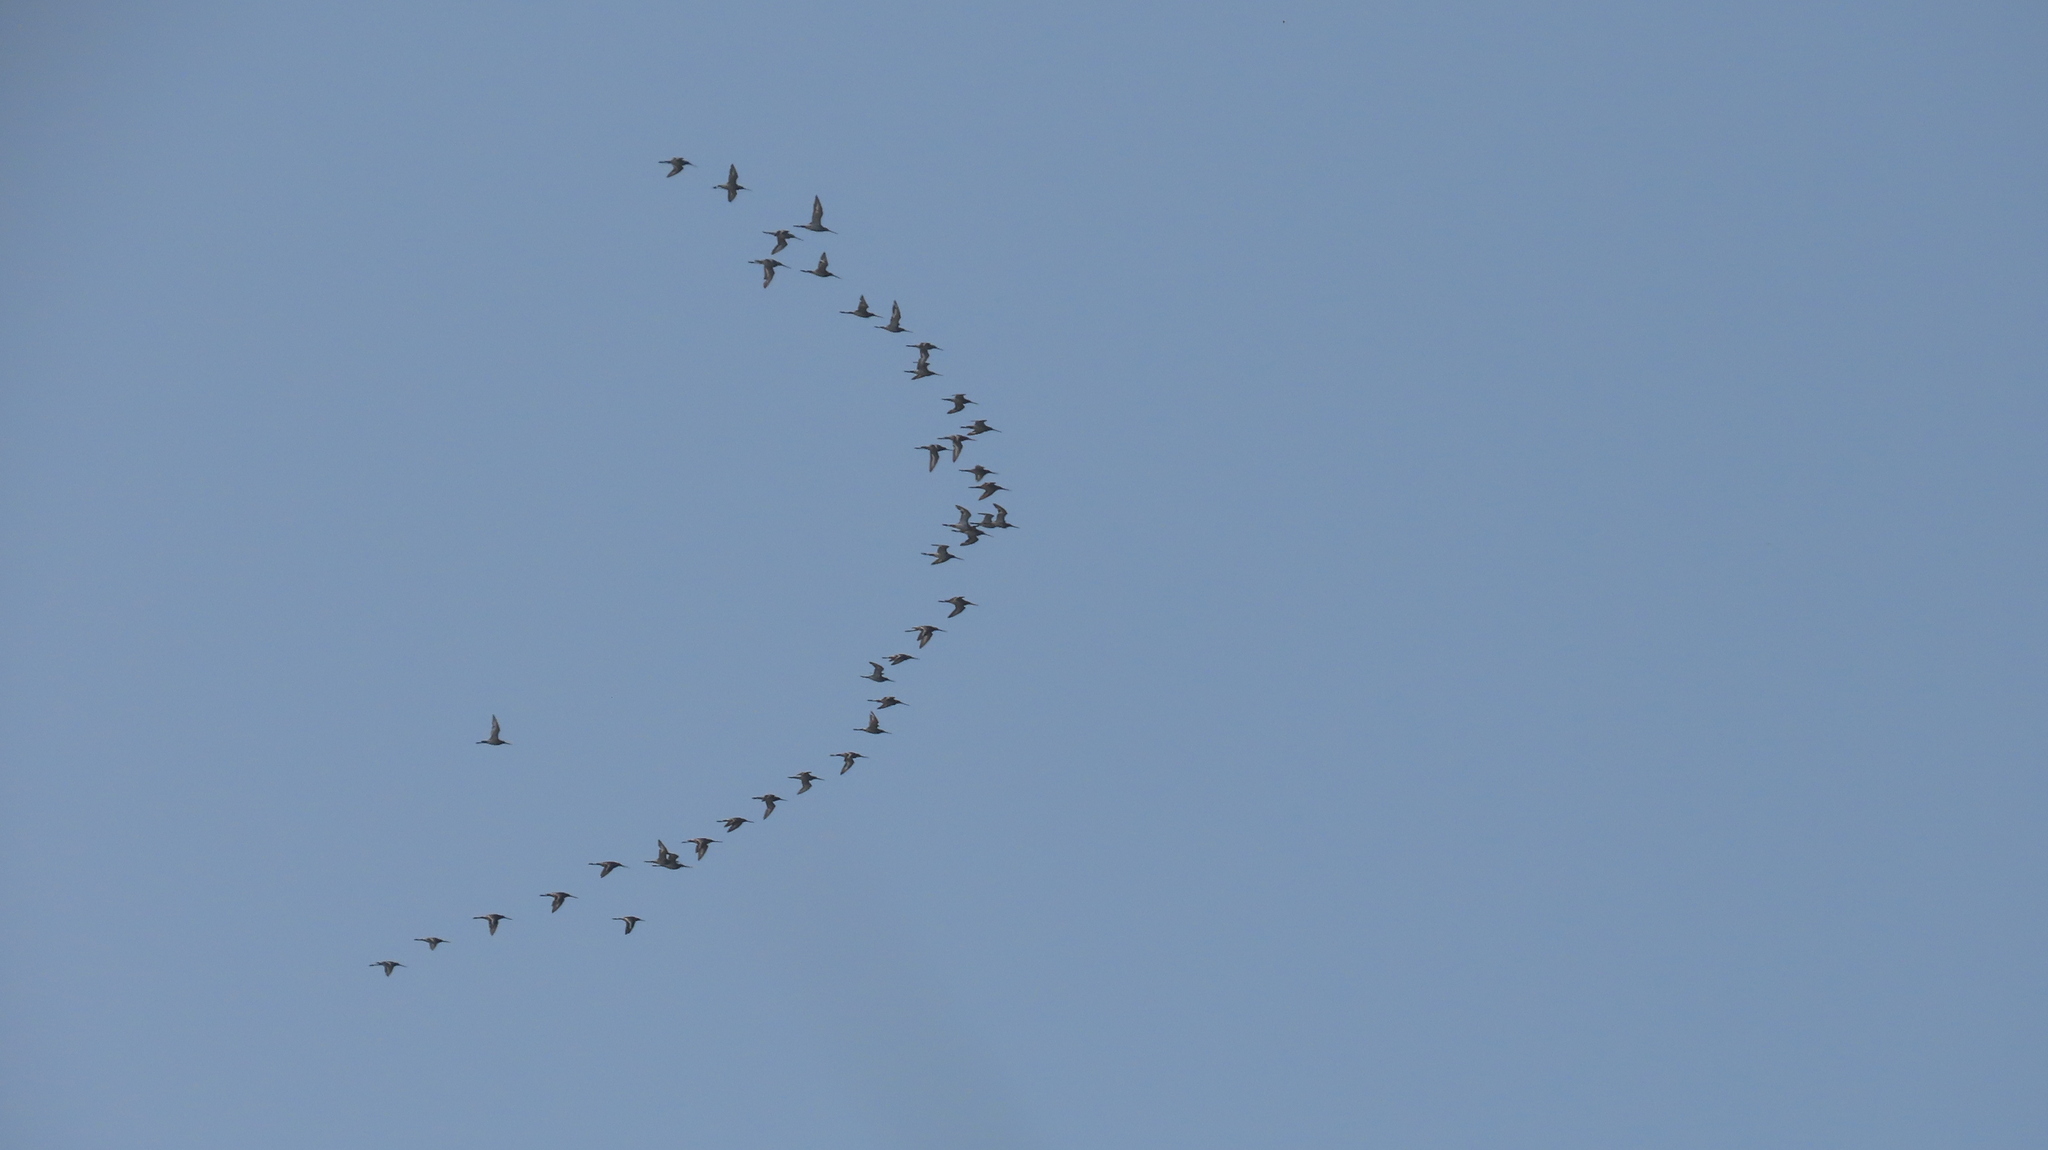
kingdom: Animalia
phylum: Chordata
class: Aves
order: Charadriiformes
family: Scolopacidae
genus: Limosa
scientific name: Limosa limosa
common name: Black-tailed godwit
